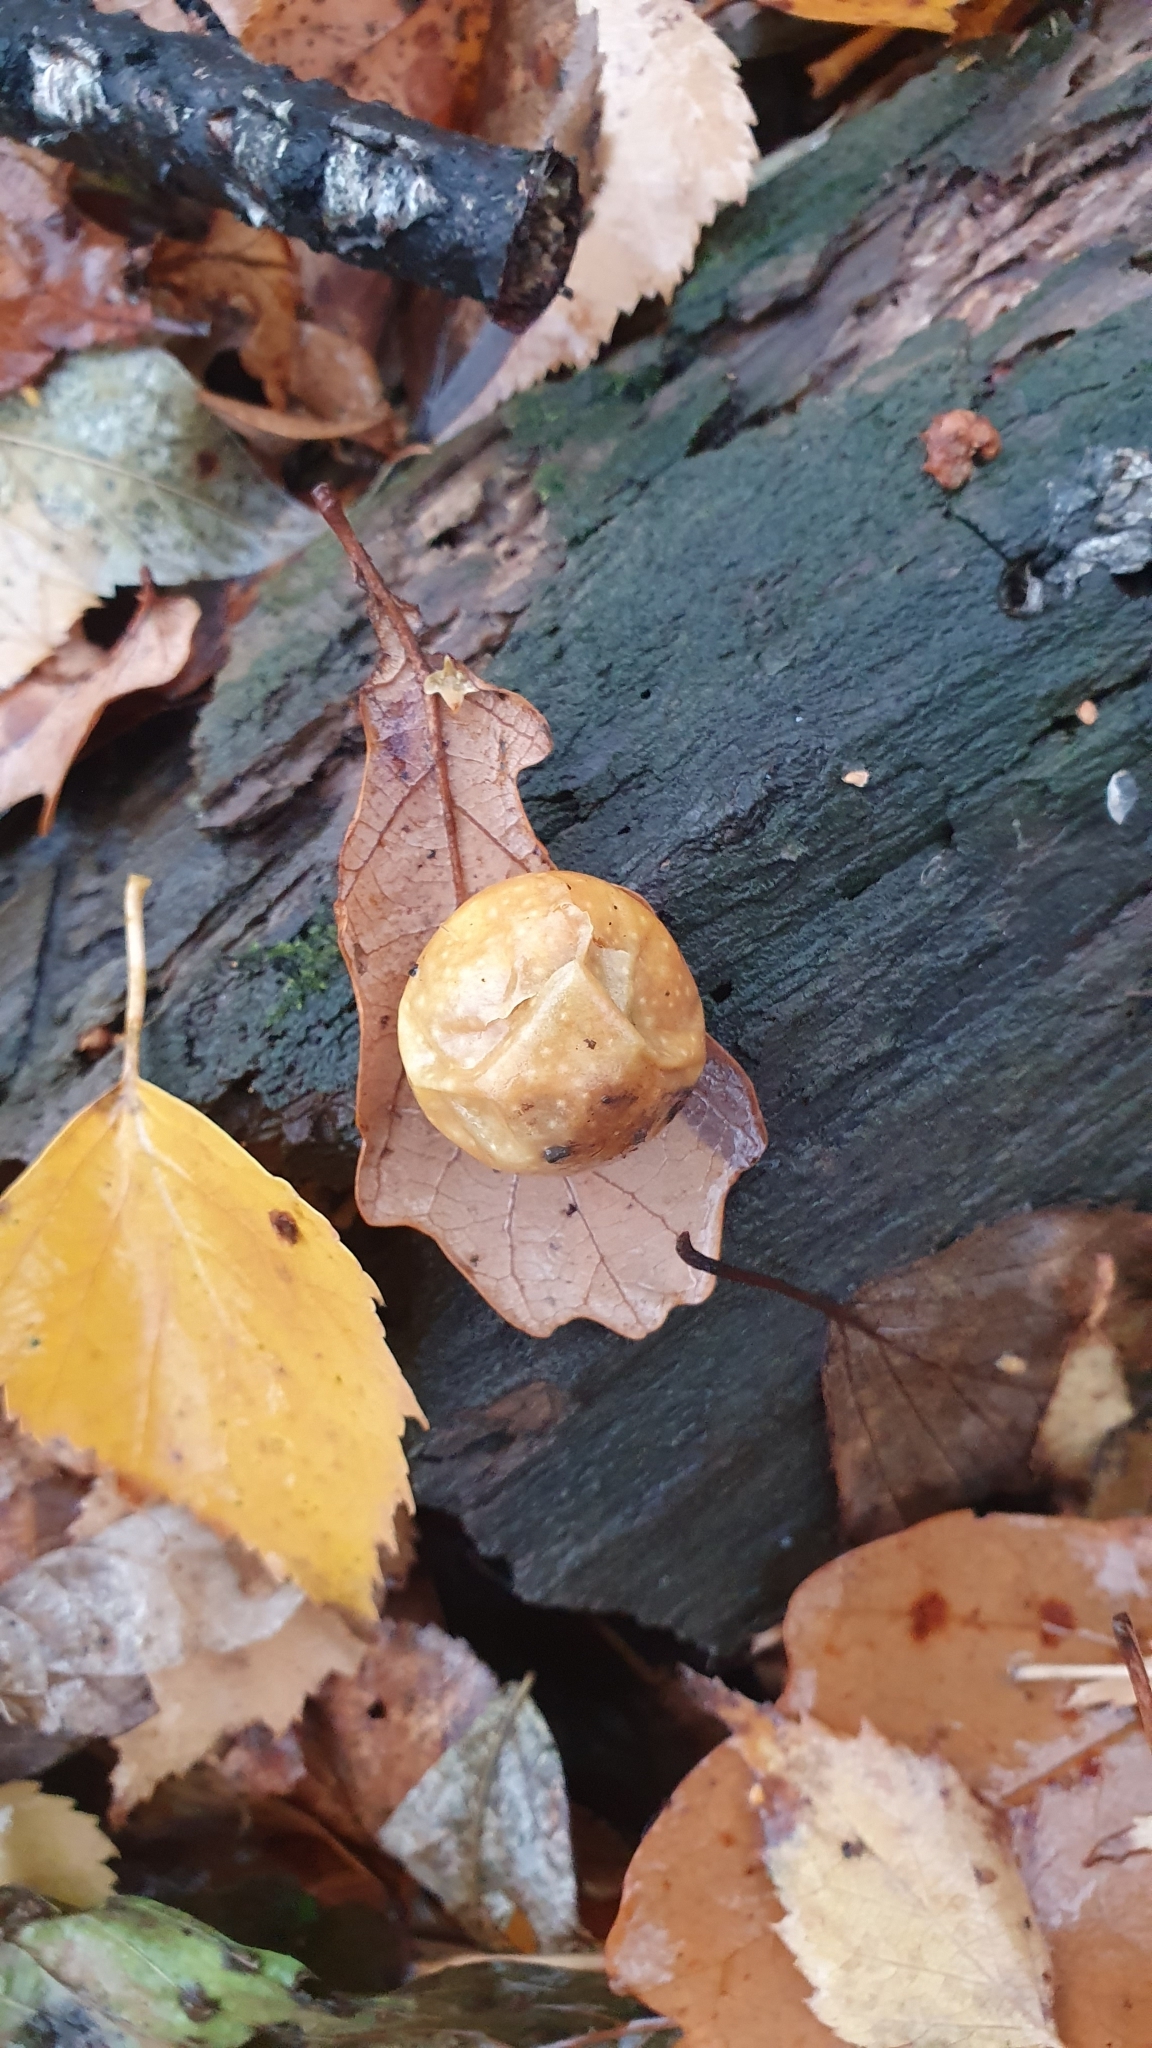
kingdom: Animalia
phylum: Arthropoda
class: Insecta
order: Hymenoptera
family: Cynipidae
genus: Cynips
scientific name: Cynips quercusfolii
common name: Cherry gall
